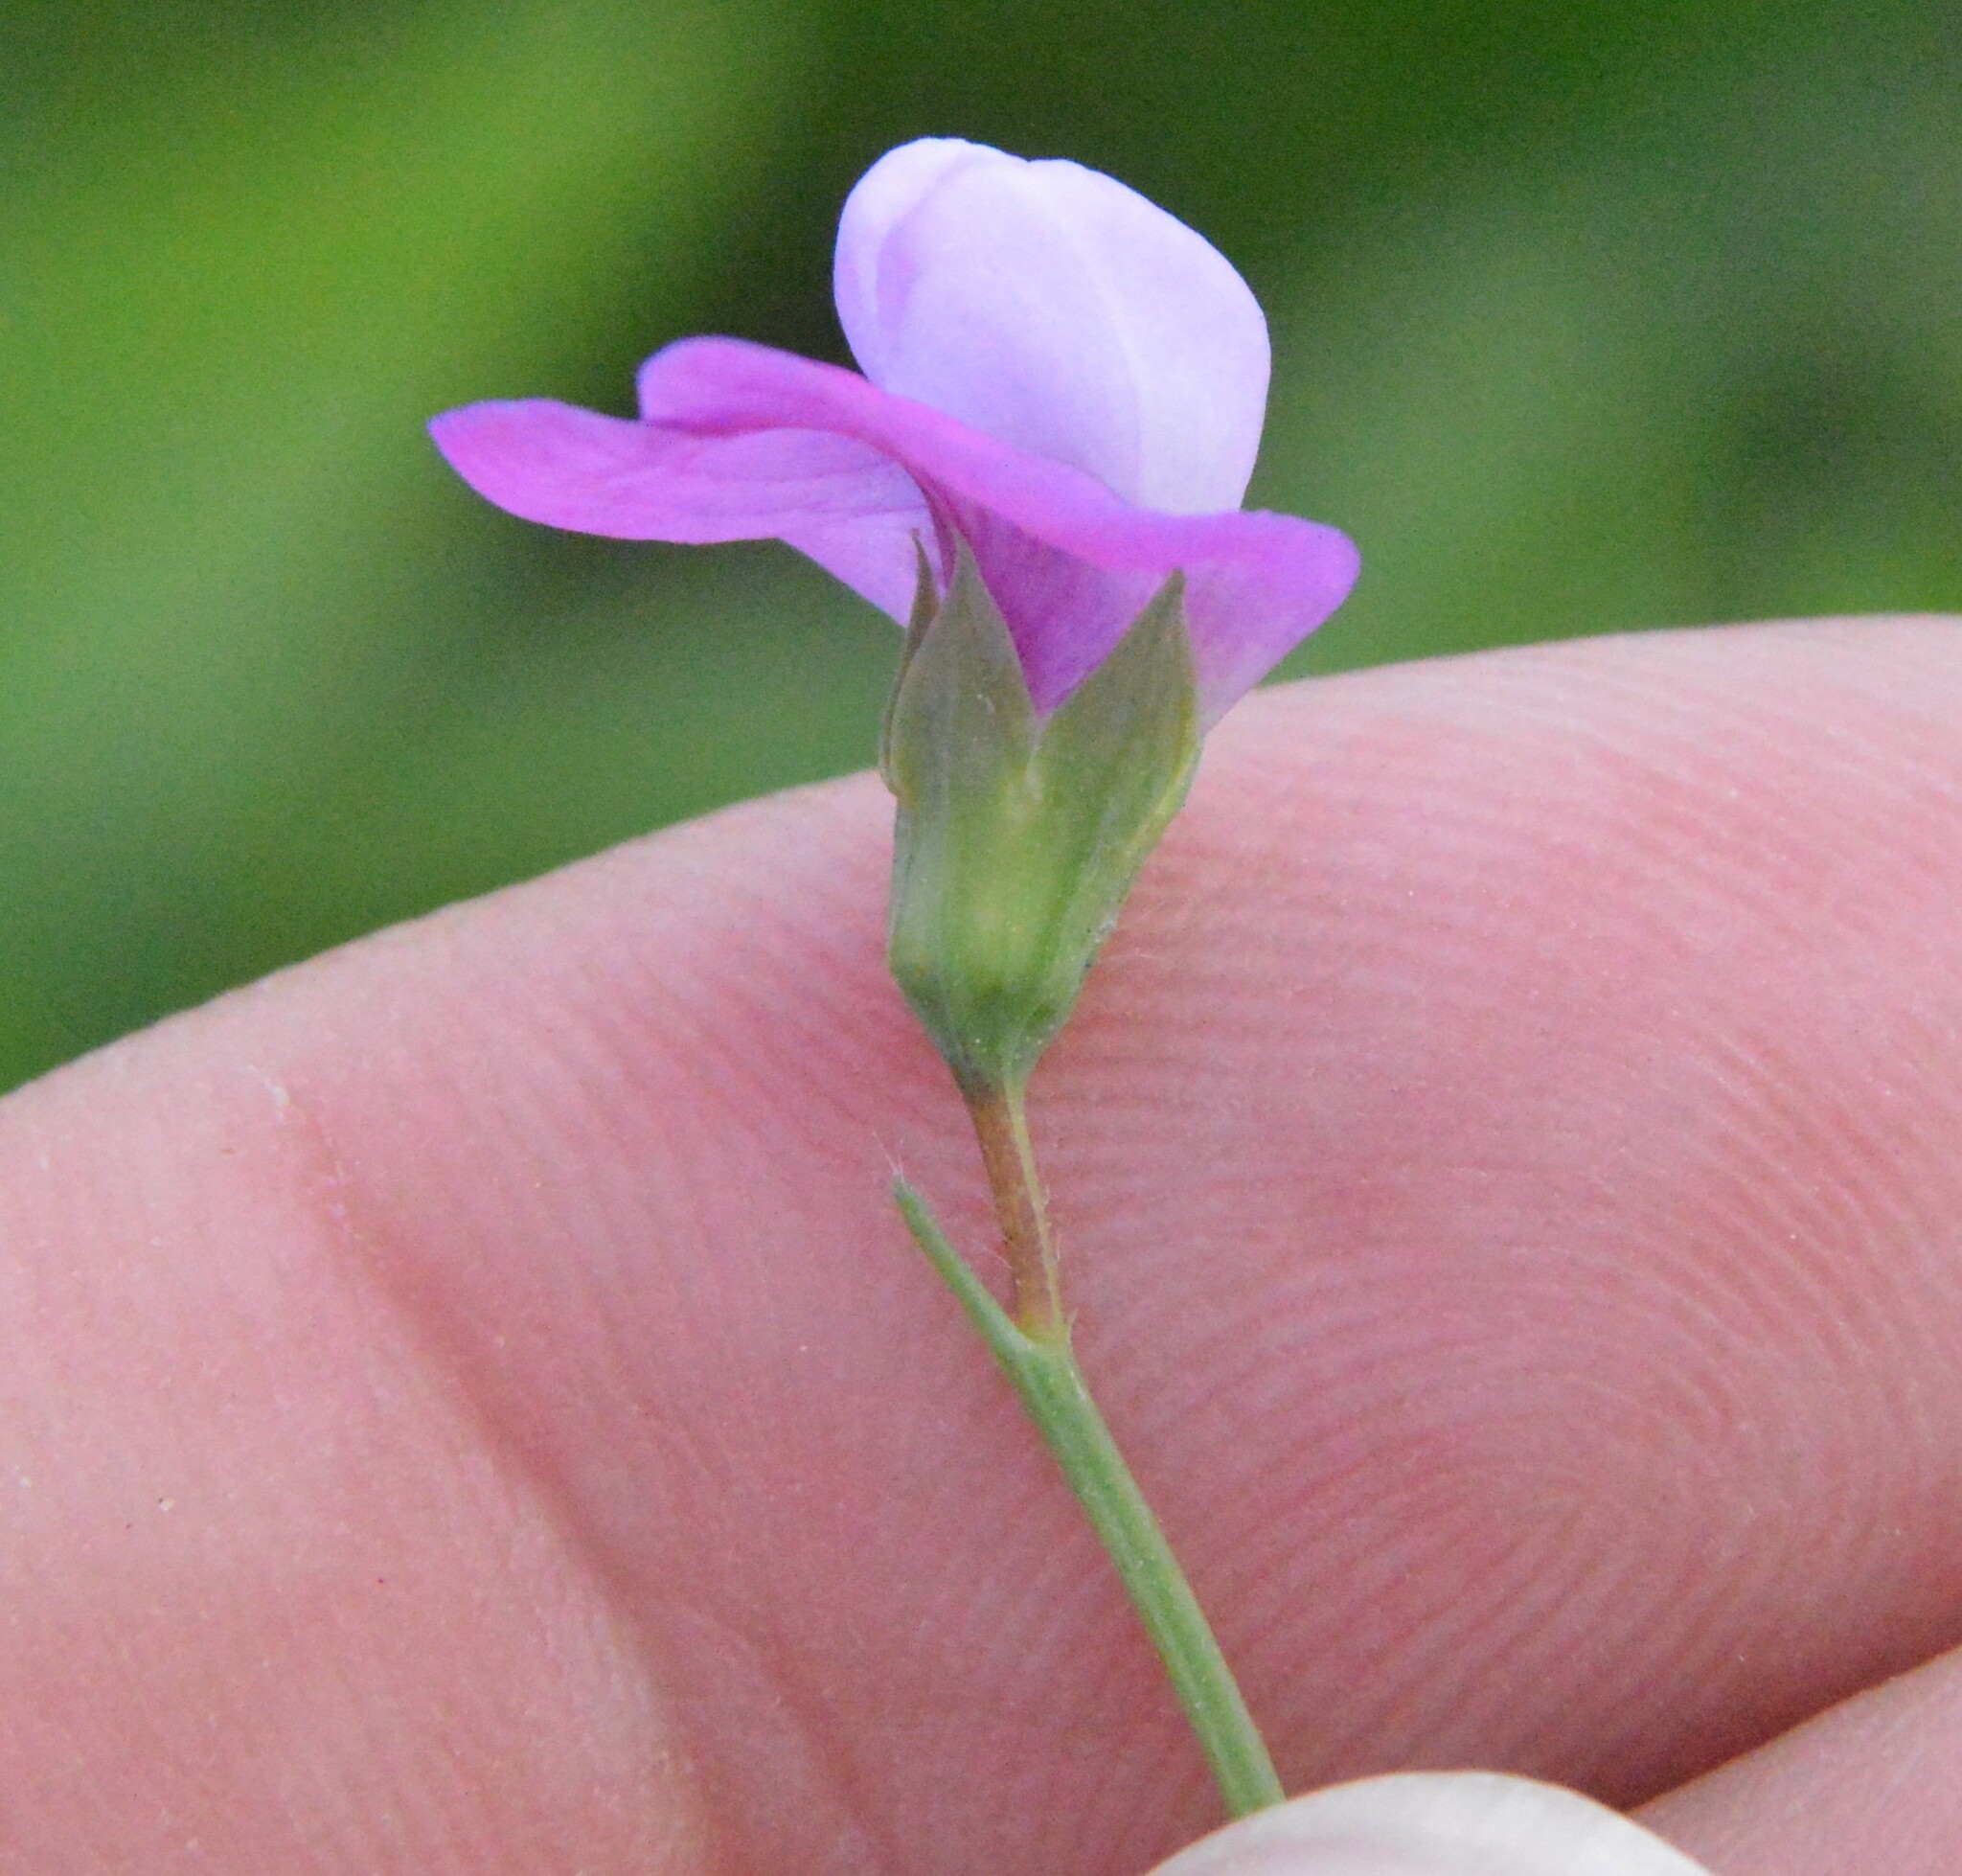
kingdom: Plantae
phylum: Tracheophyta
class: Magnoliopsida
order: Fabales
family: Fabaceae
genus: Lathyrus
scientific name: Lathyrus hirsutus
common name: Hairy vetchling
